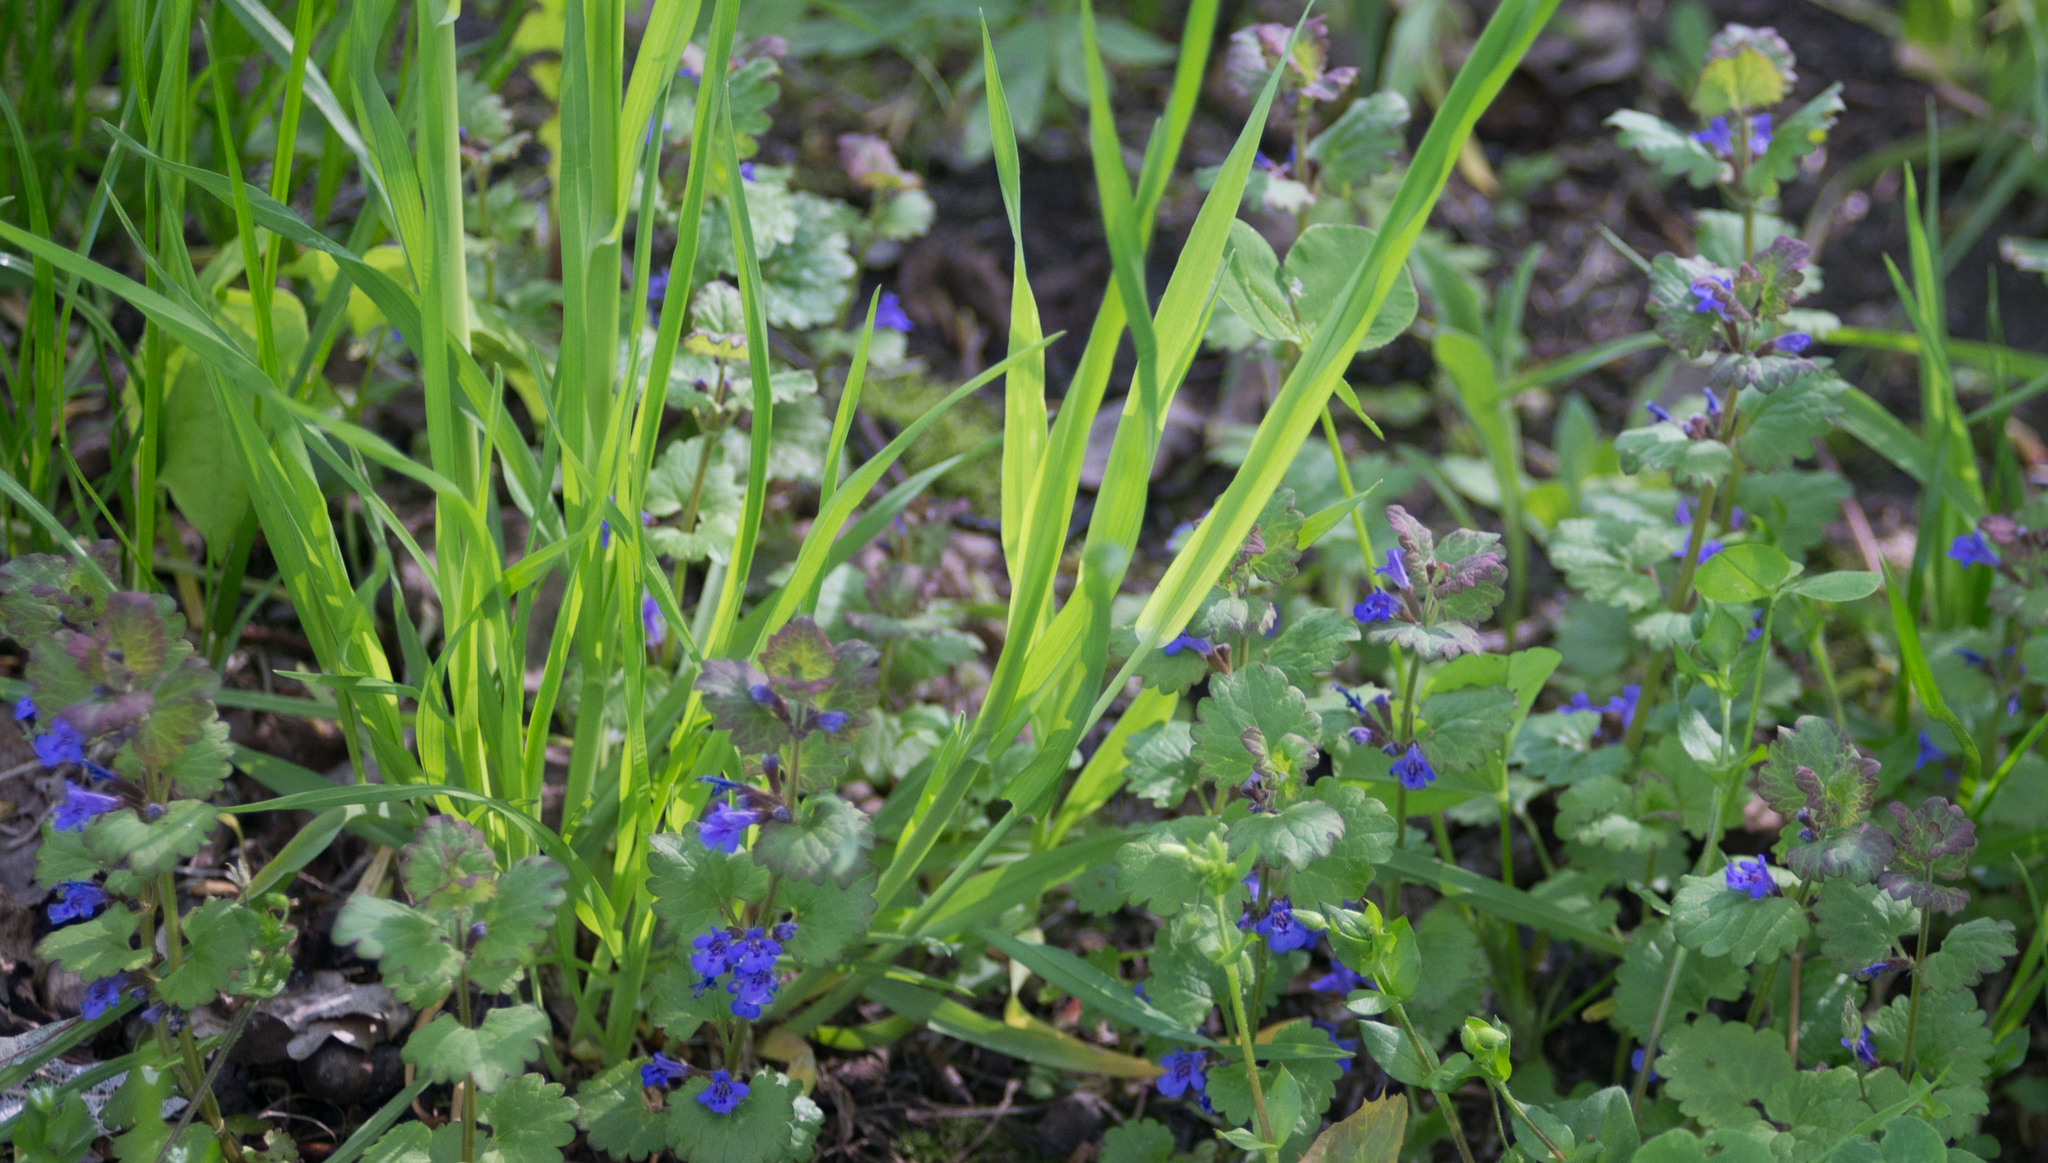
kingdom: Plantae
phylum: Tracheophyta
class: Magnoliopsida
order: Lamiales
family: Lamiaceae
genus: Glechoma
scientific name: Glechoma hederacea
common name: Ground ivy
